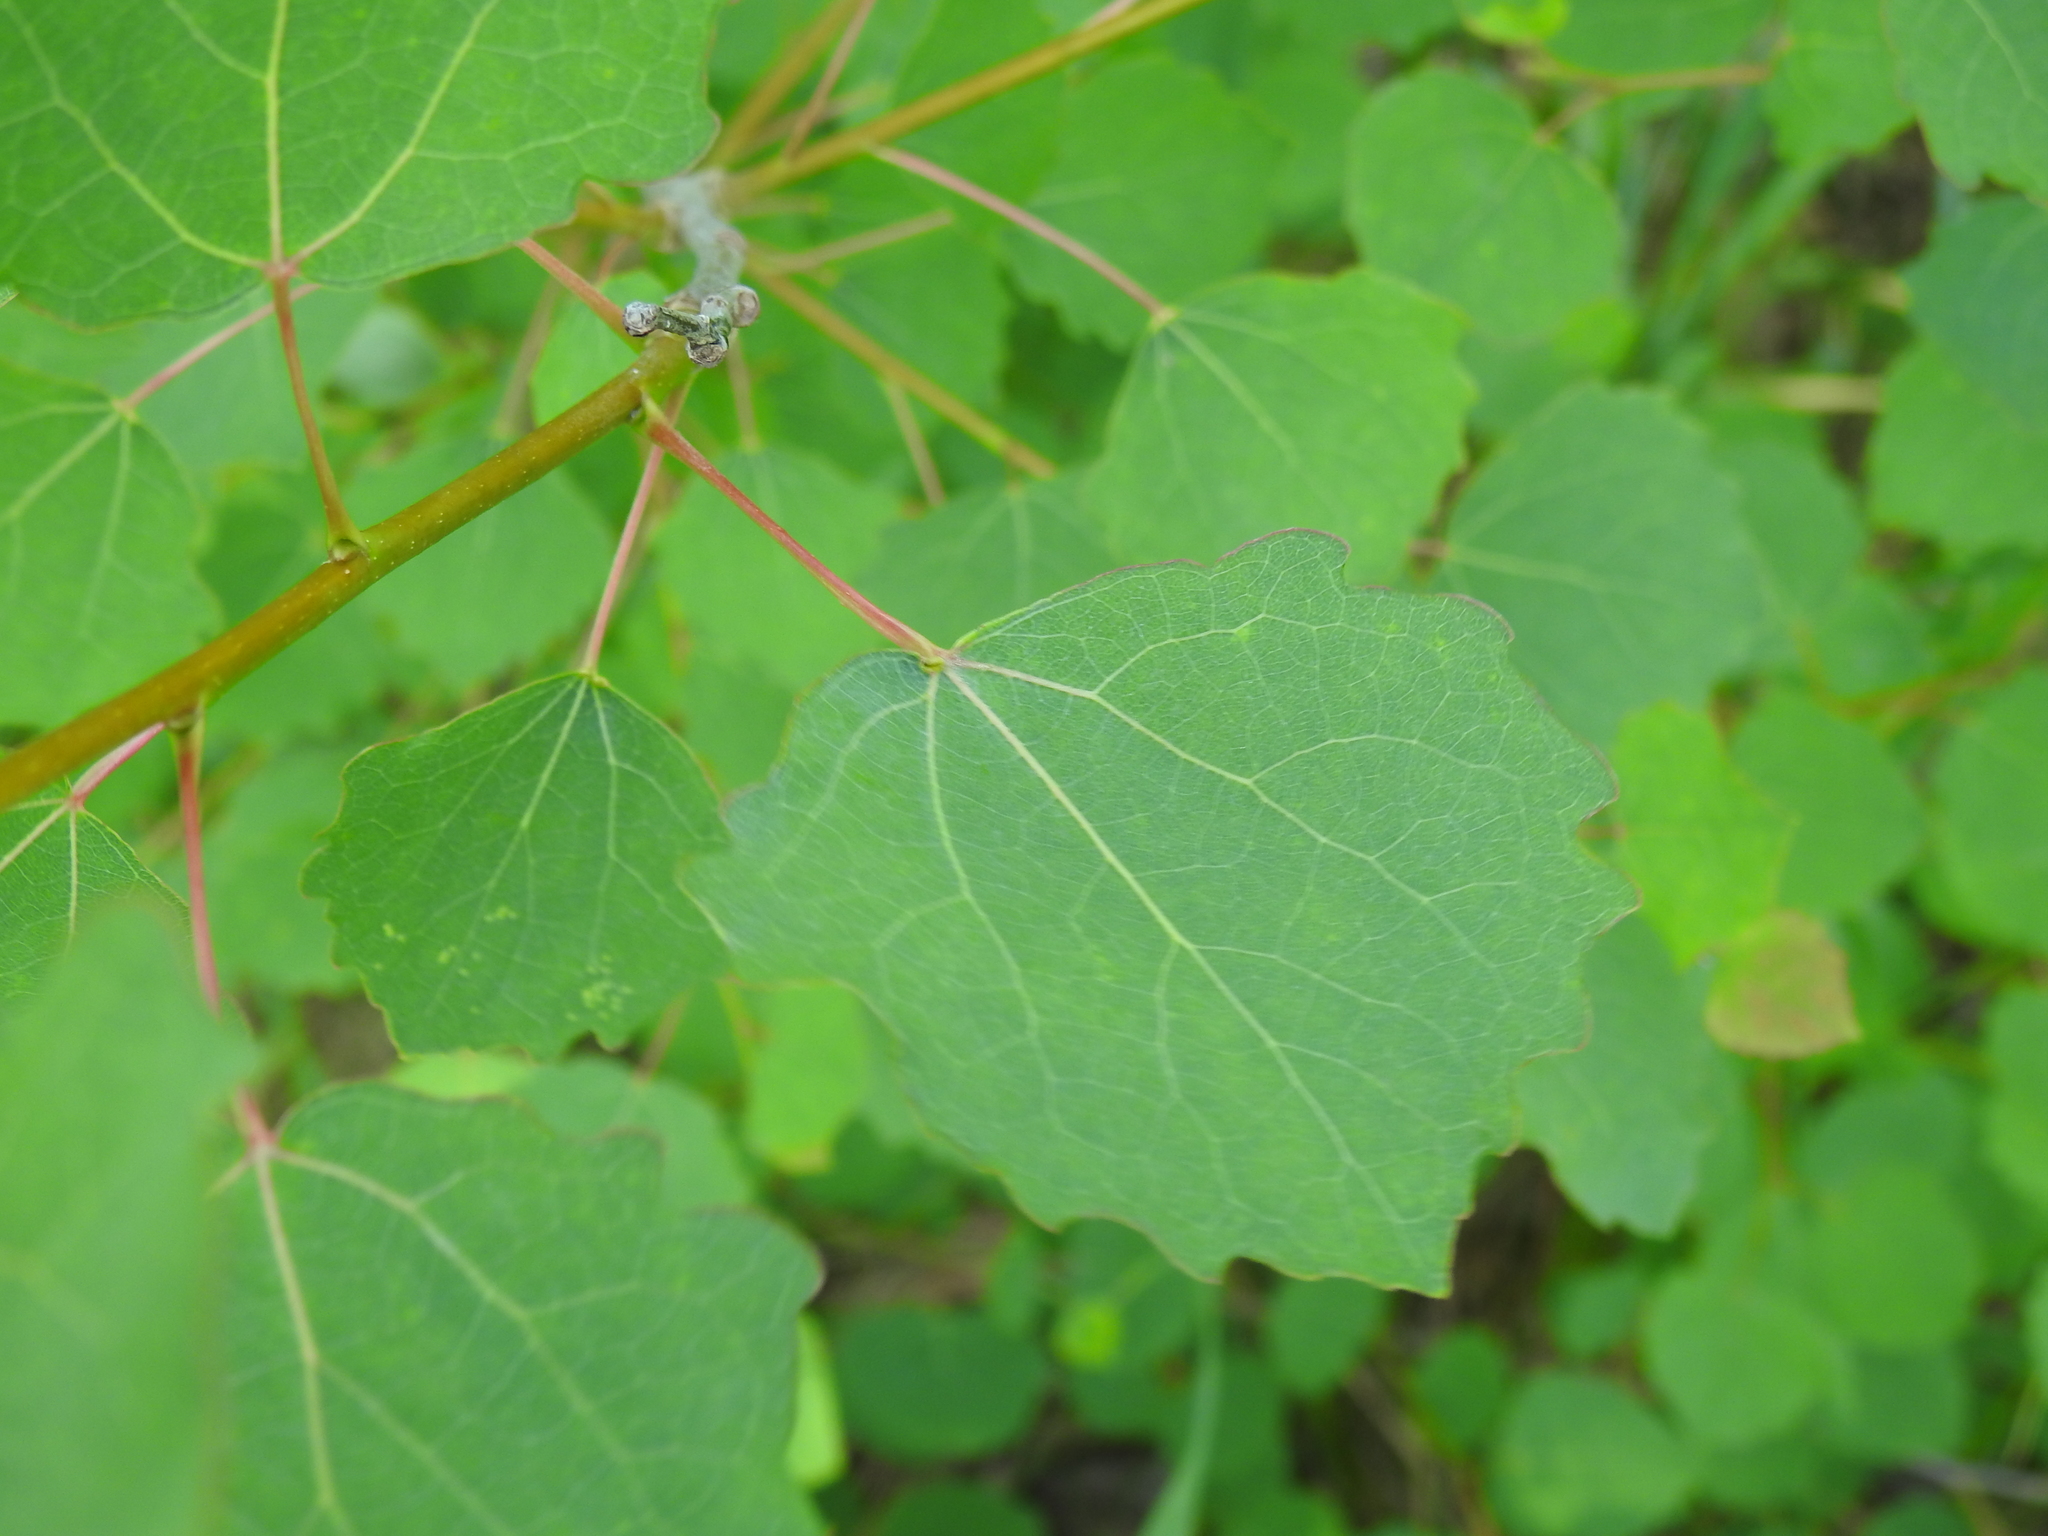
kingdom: Plantae
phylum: Tracheophyta
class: Magnoliopsida
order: Malpighiales
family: Salicaceae
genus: Populus
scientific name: Populus tremula
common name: European aspen
